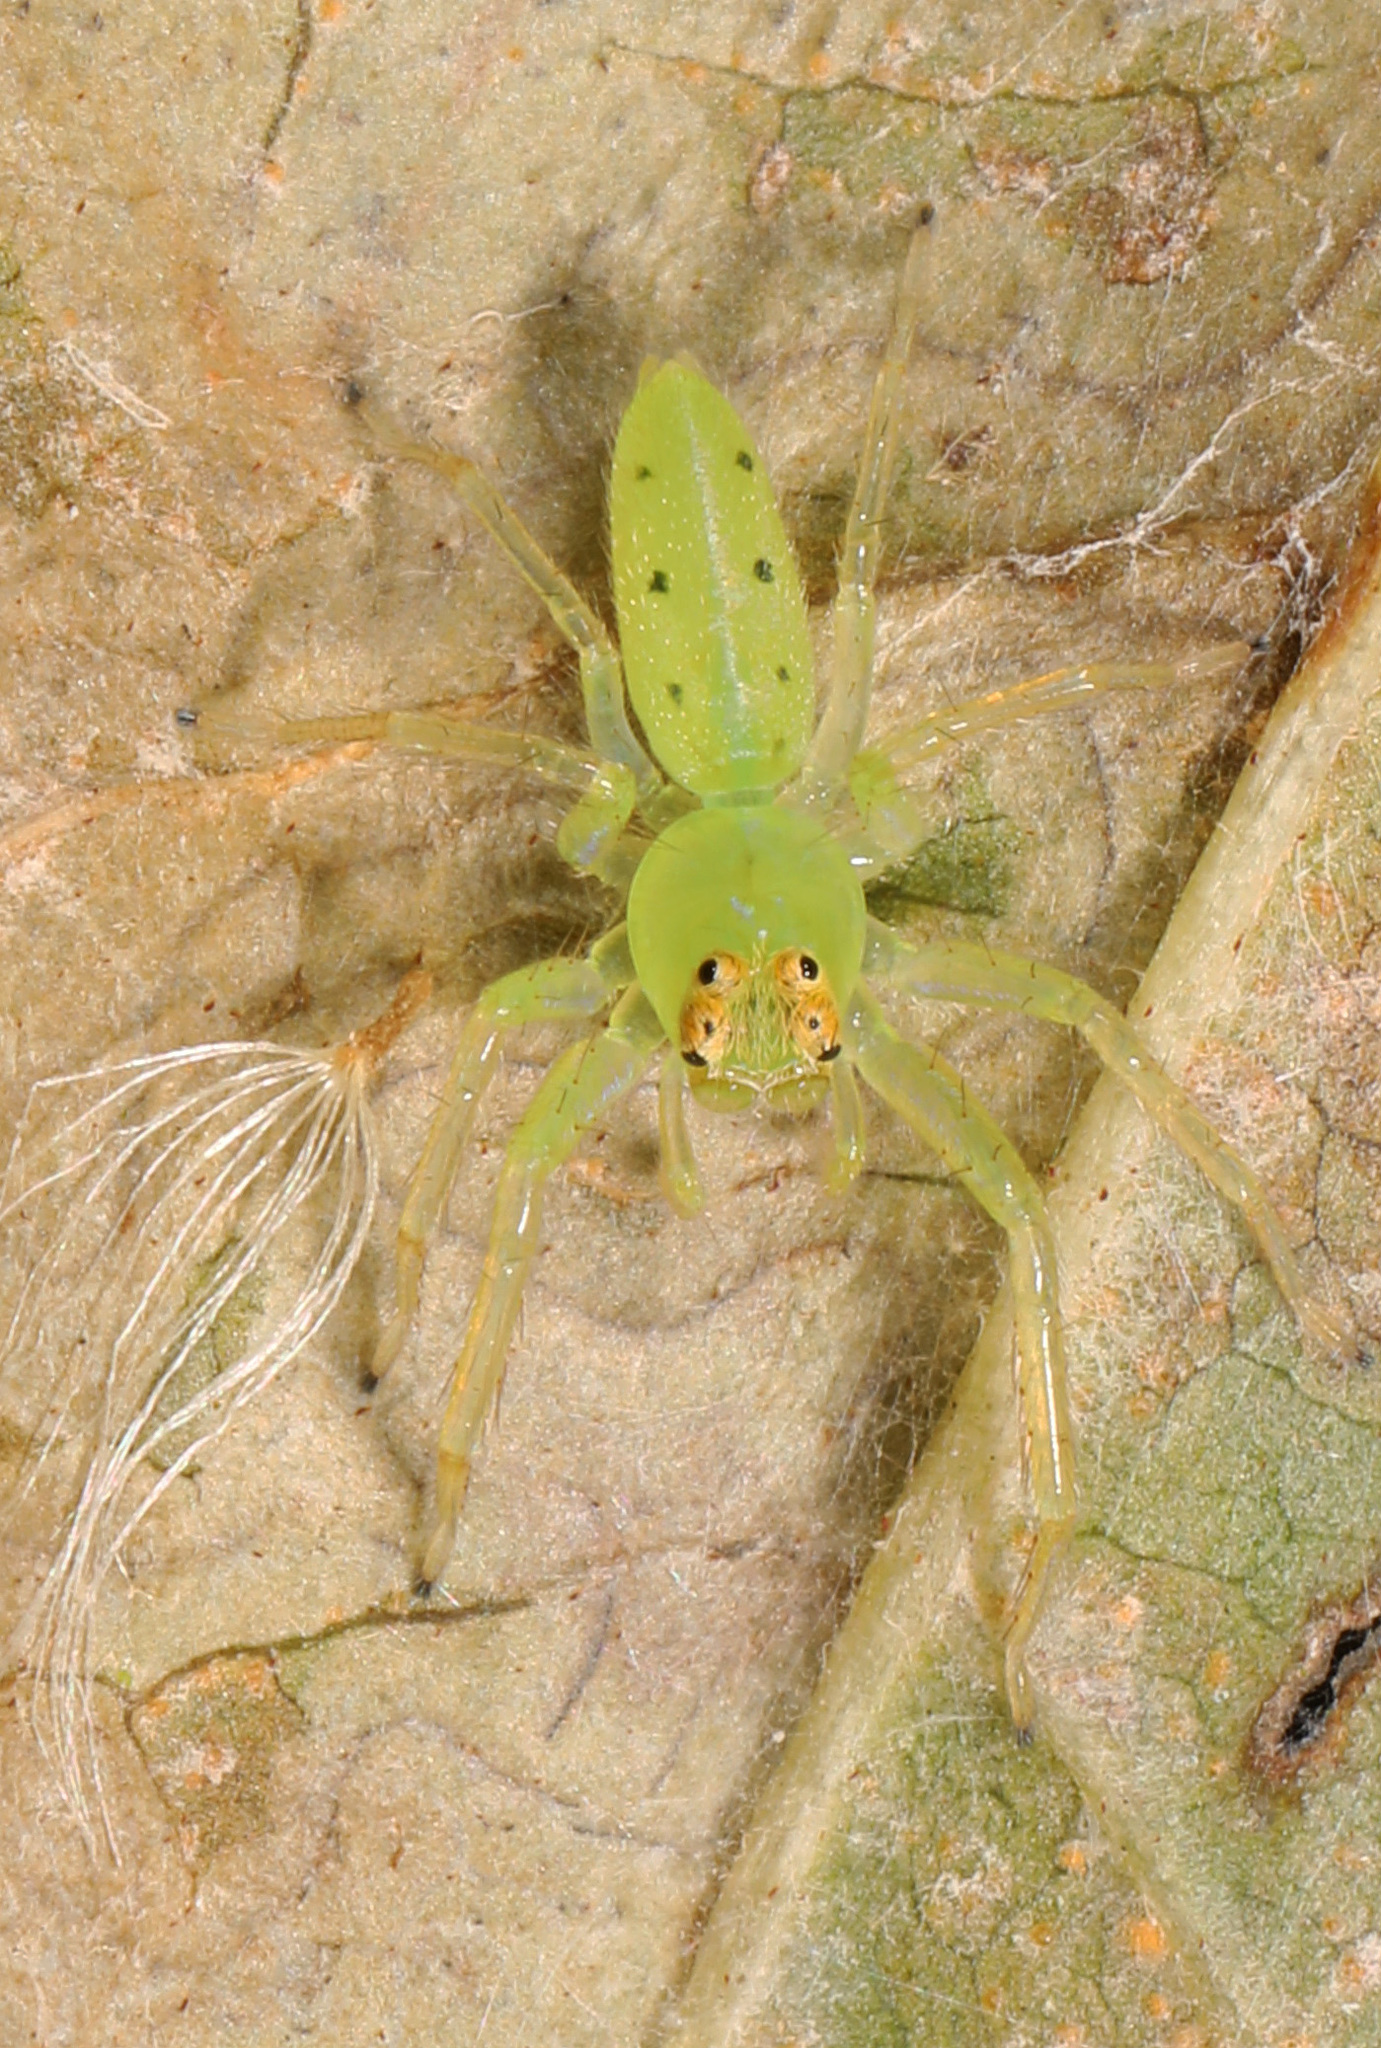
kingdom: Animalia
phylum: Arthropoda
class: Arachnida
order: Araneae
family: Salticidae
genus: Lyssomanes
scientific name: Lyssomanes viridis
